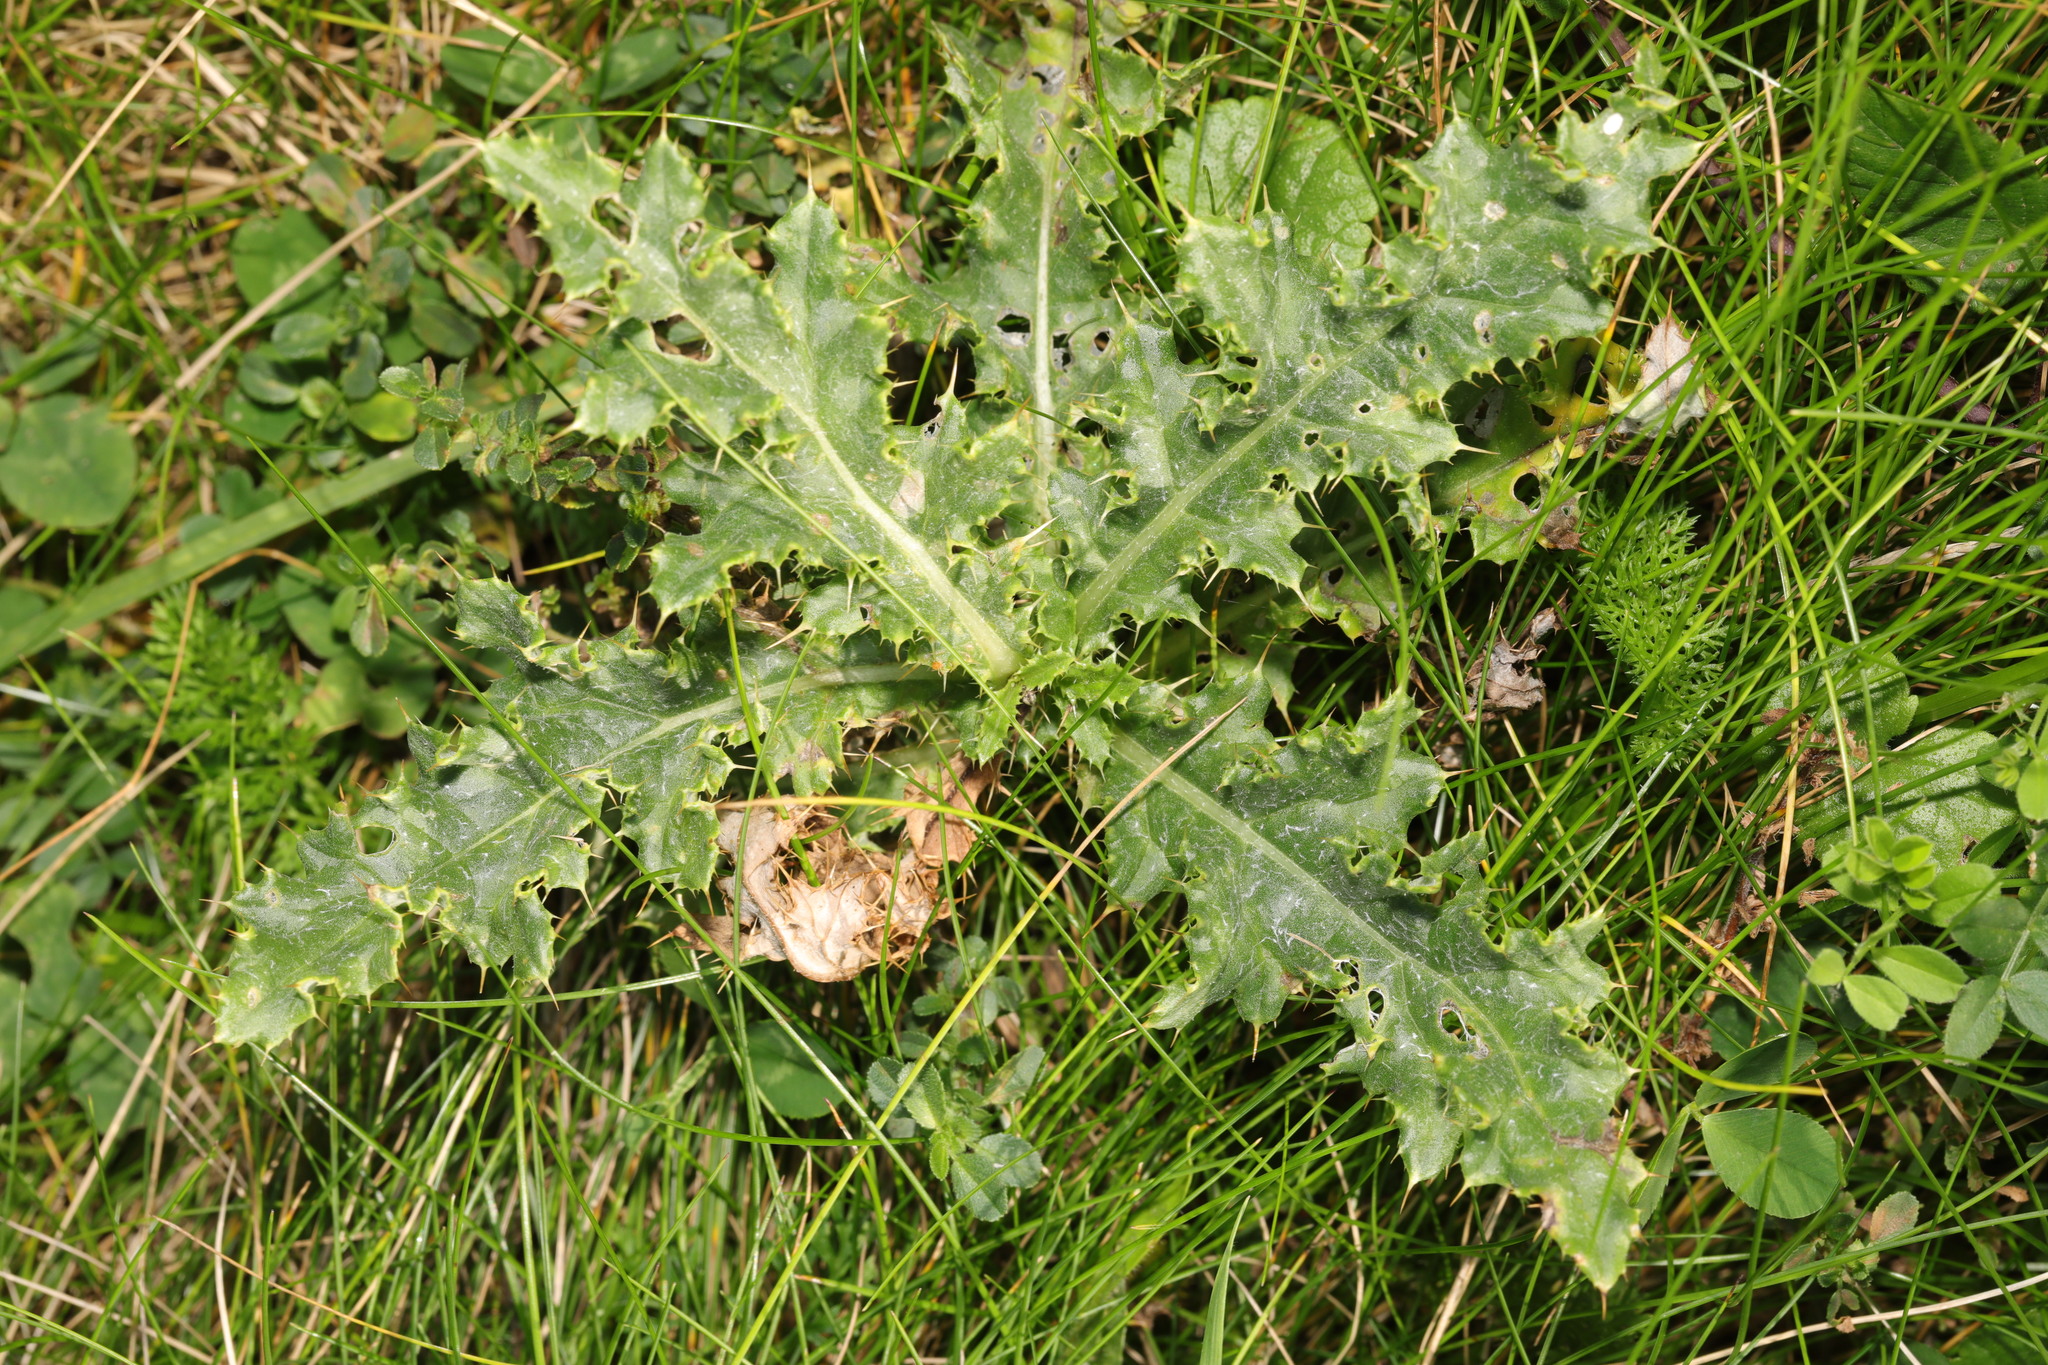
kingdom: Plantae
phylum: Tracheophyta
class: Magnoliopsida
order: Asterales
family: Asteraceae
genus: Cirsium
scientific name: Cirsium arvense
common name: Creeping thistle
